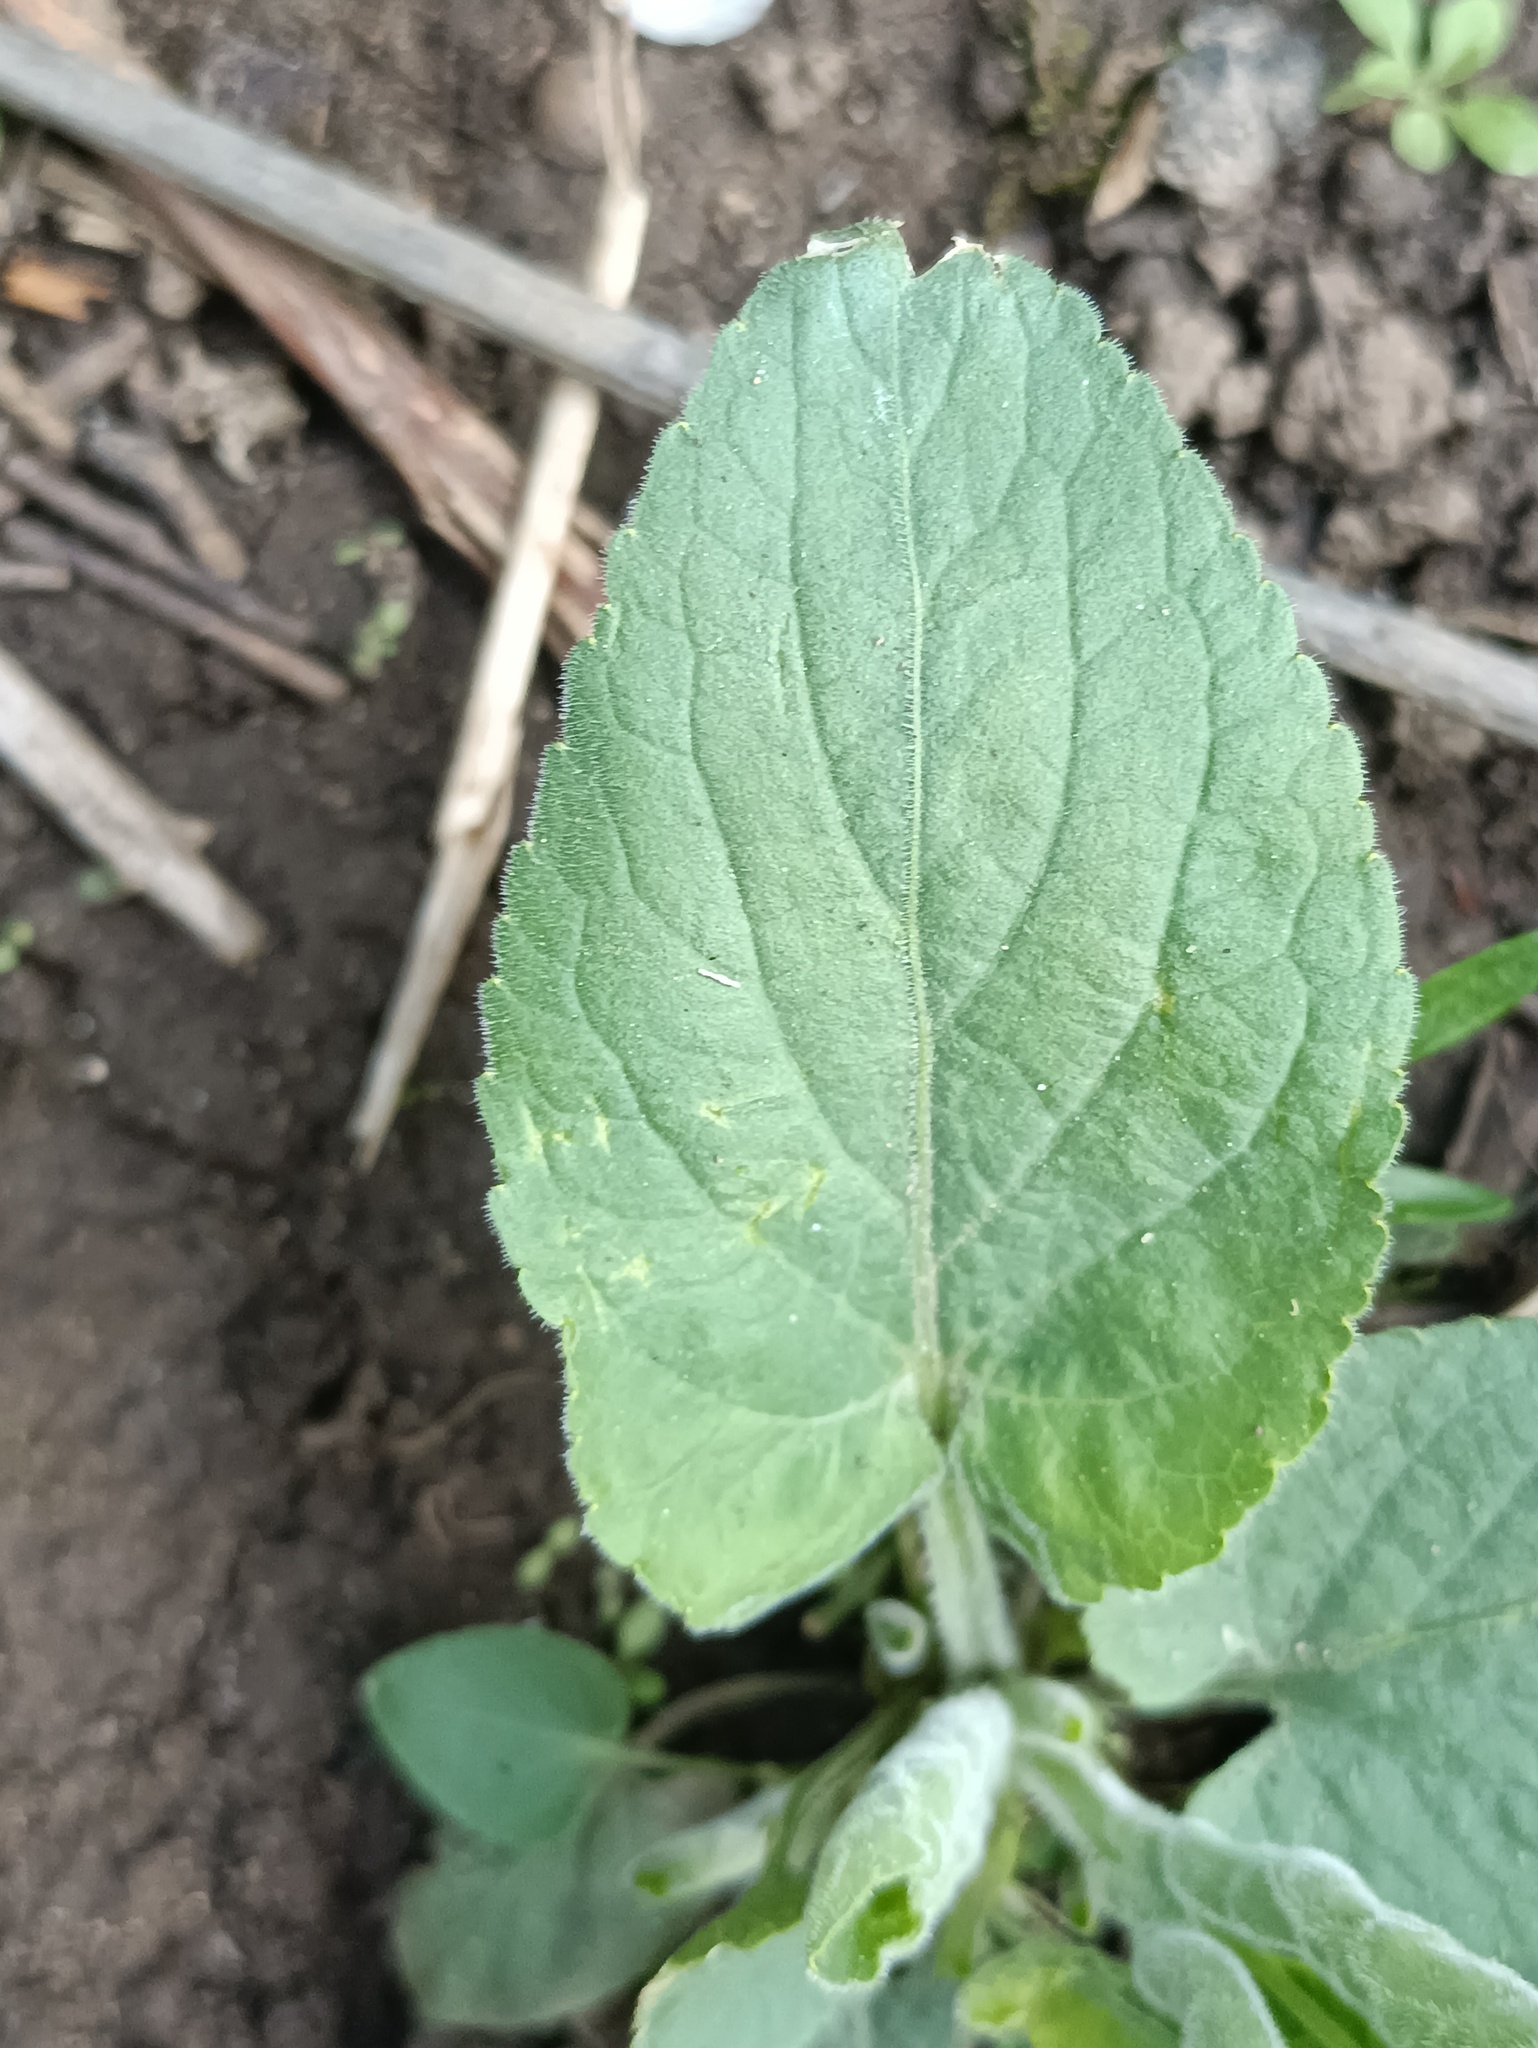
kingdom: Plantae
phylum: Tracheophyta
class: Magnoliopsida
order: Malpighiales
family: Violaceae
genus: Viola
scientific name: Viola hirta
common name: Hairy violet
